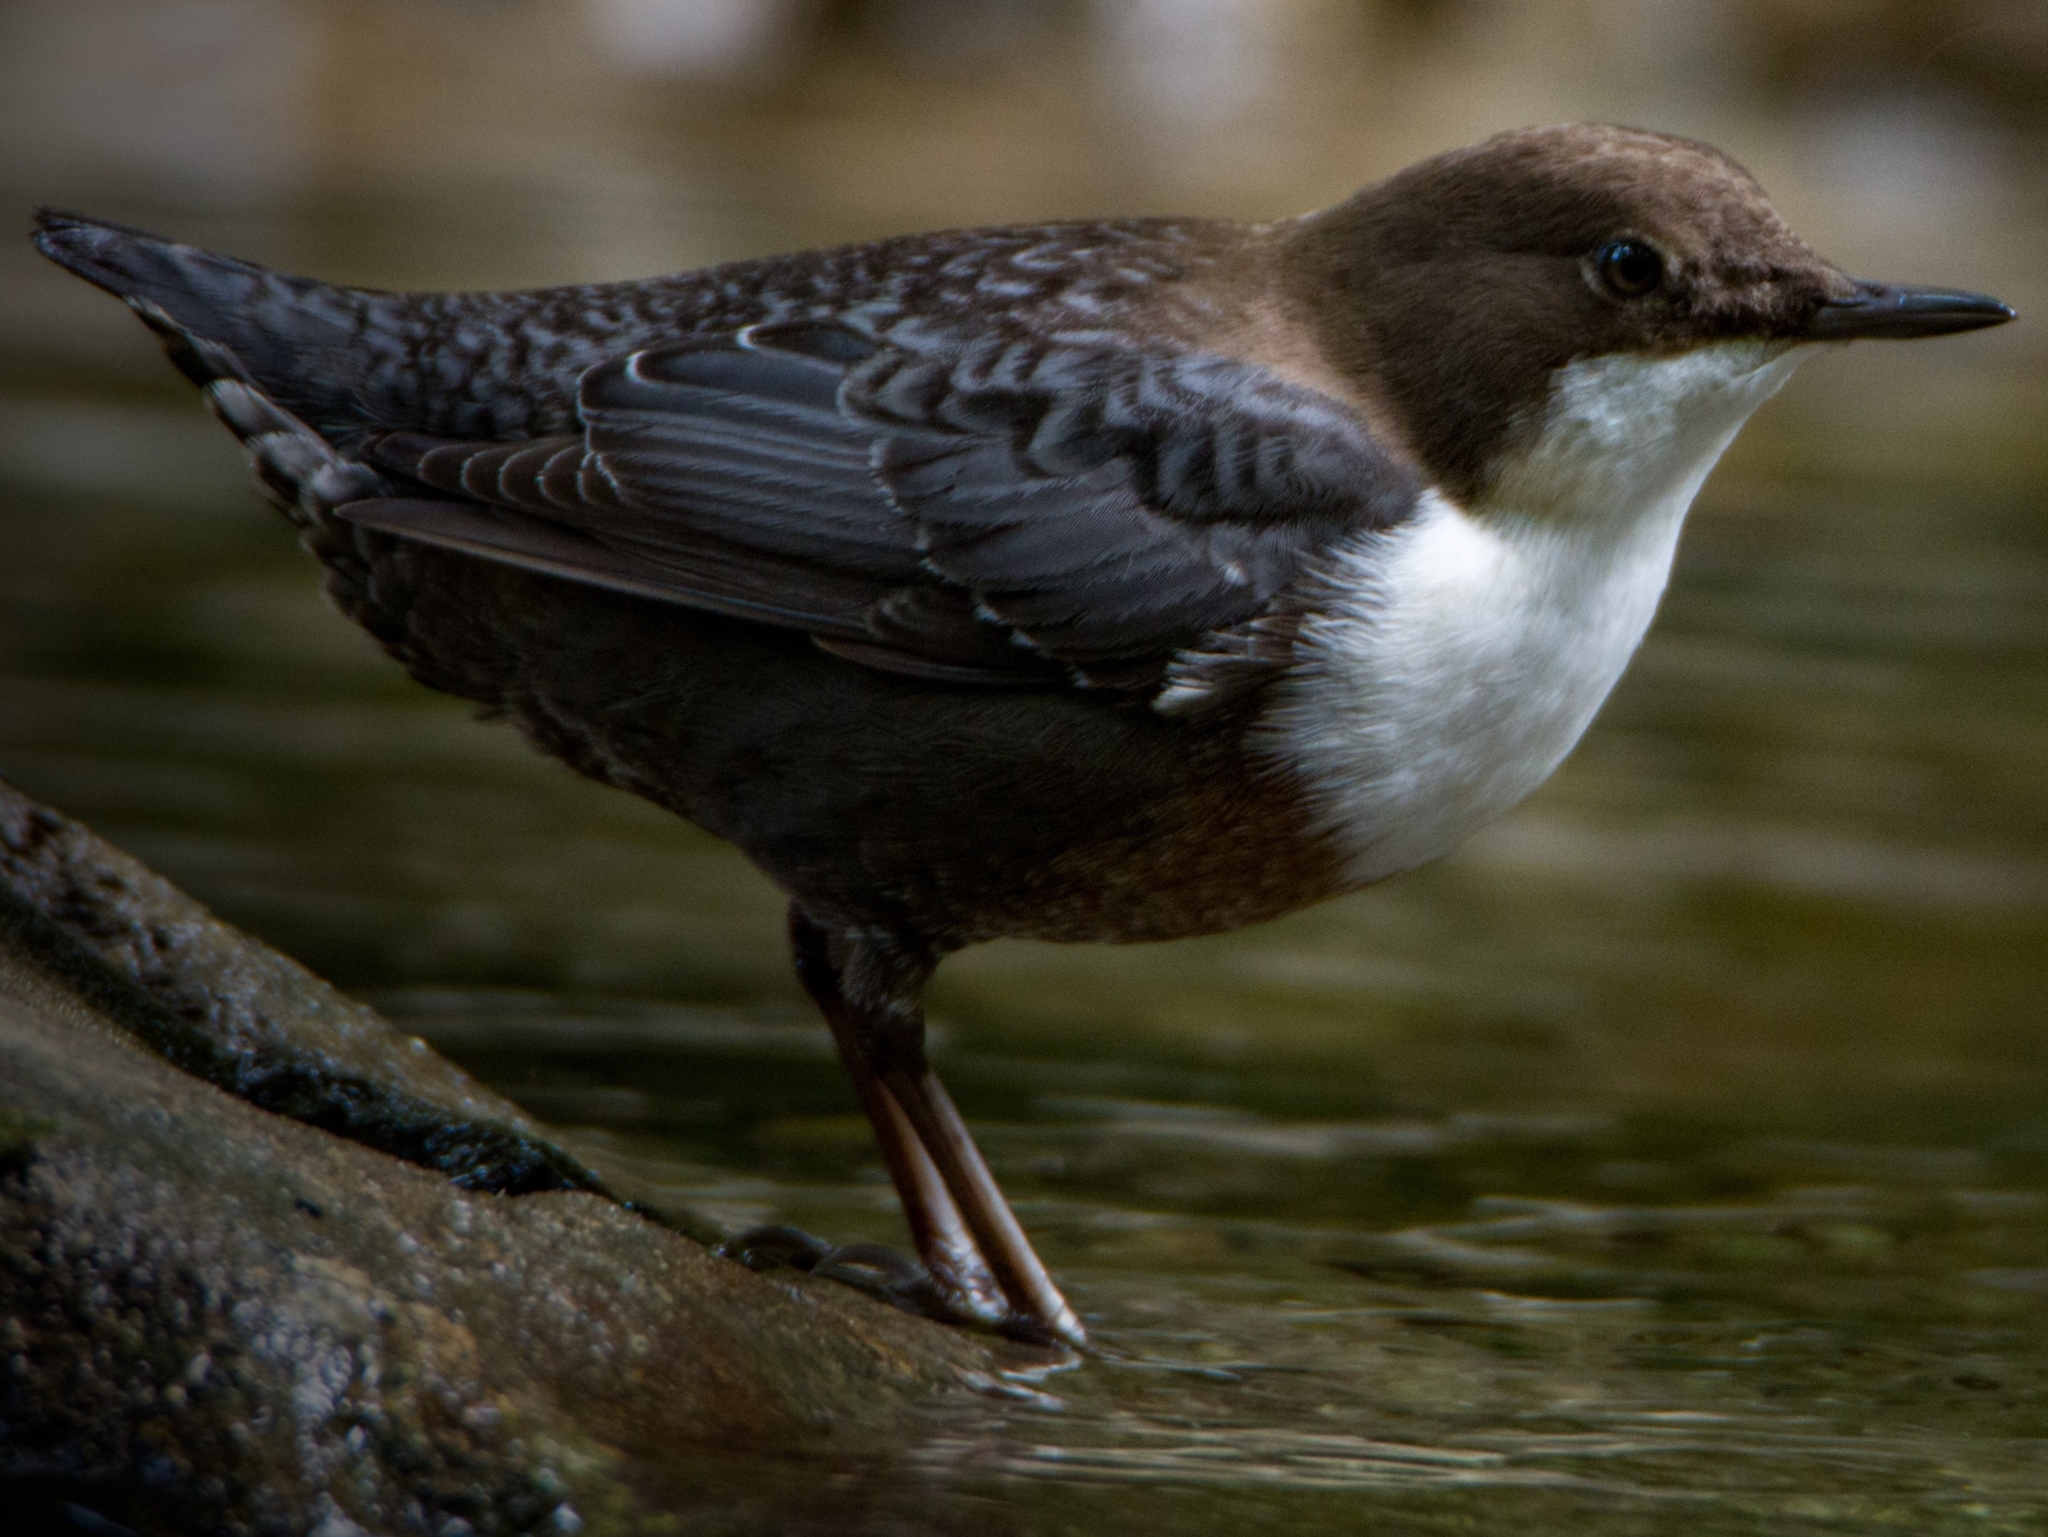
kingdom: Animalia
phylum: Chordata
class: Aves
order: Passeriformes
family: Cinclidae
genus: Cinclus
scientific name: Cinclus cinclus
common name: White-throated dipper
